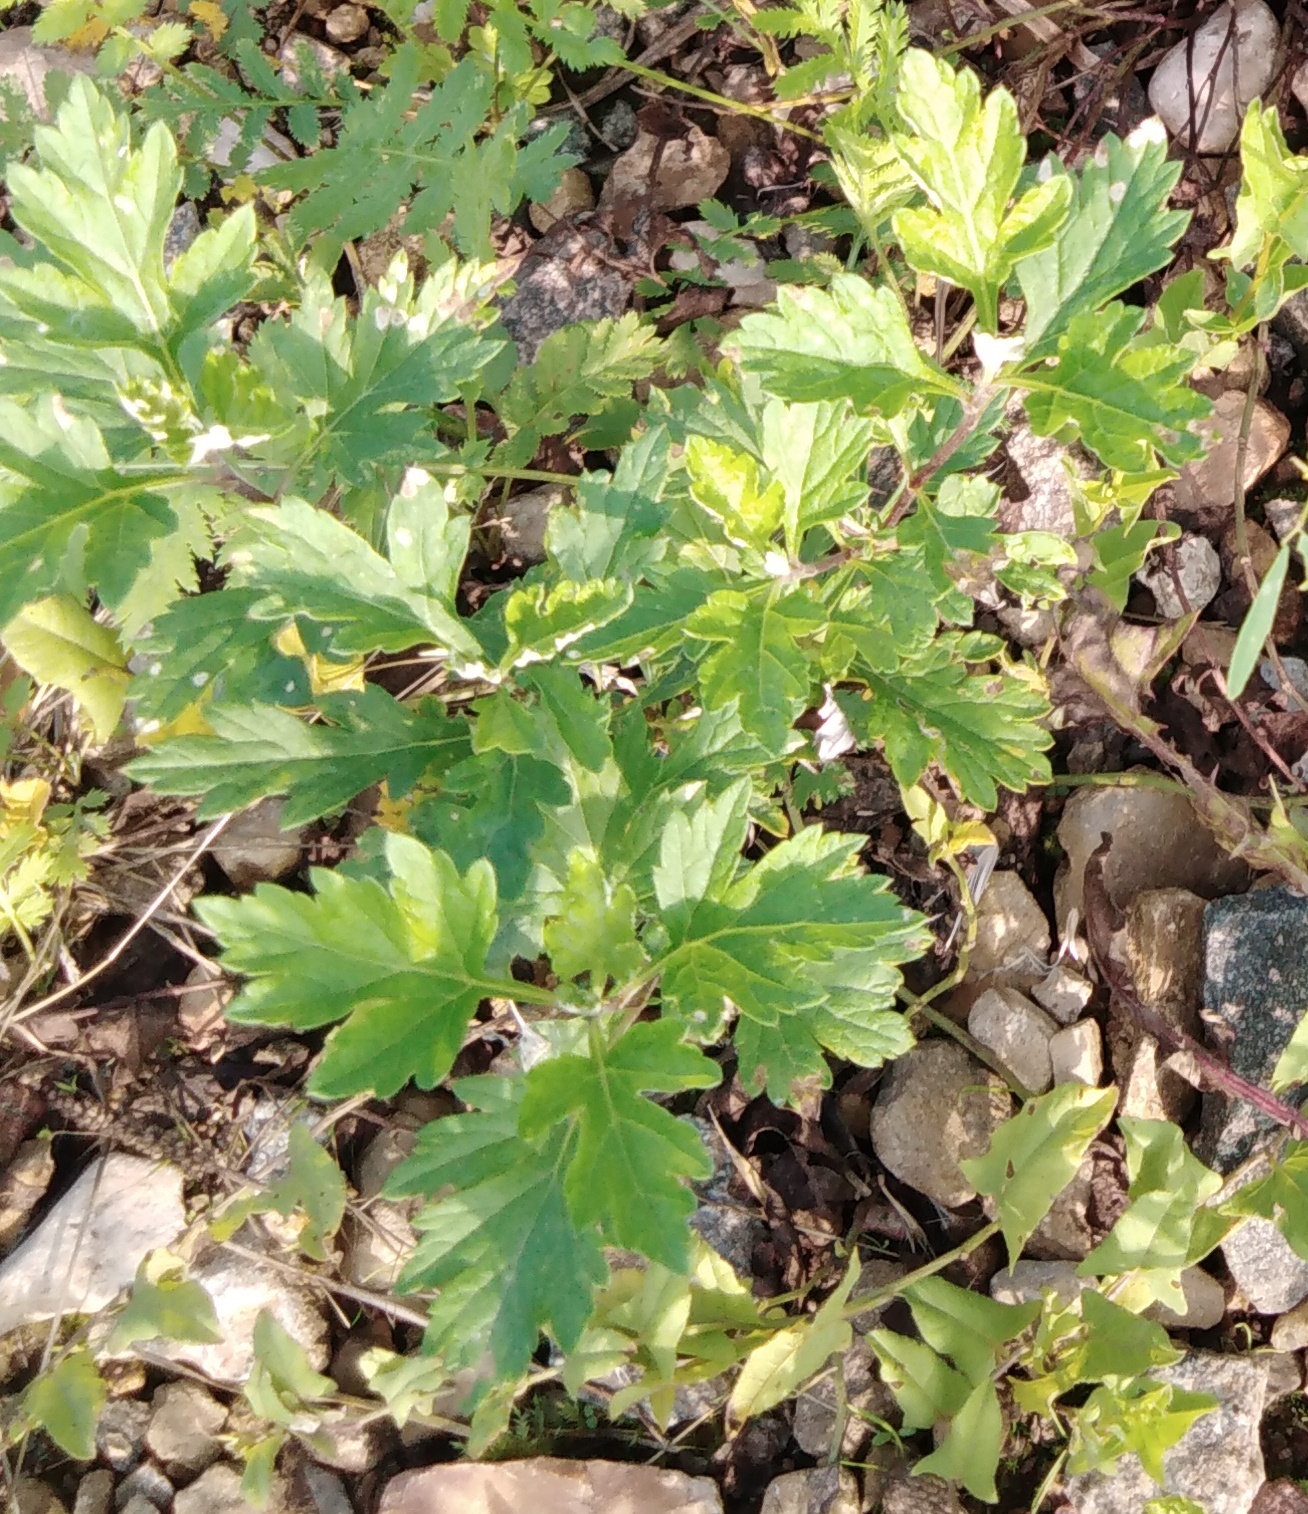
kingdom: Plantae
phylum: Tracheophyta
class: Magnoliopsida
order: Asterales
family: Asteraceae
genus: Artemisia
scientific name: Artemisia vulgaris
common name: Mugwort
